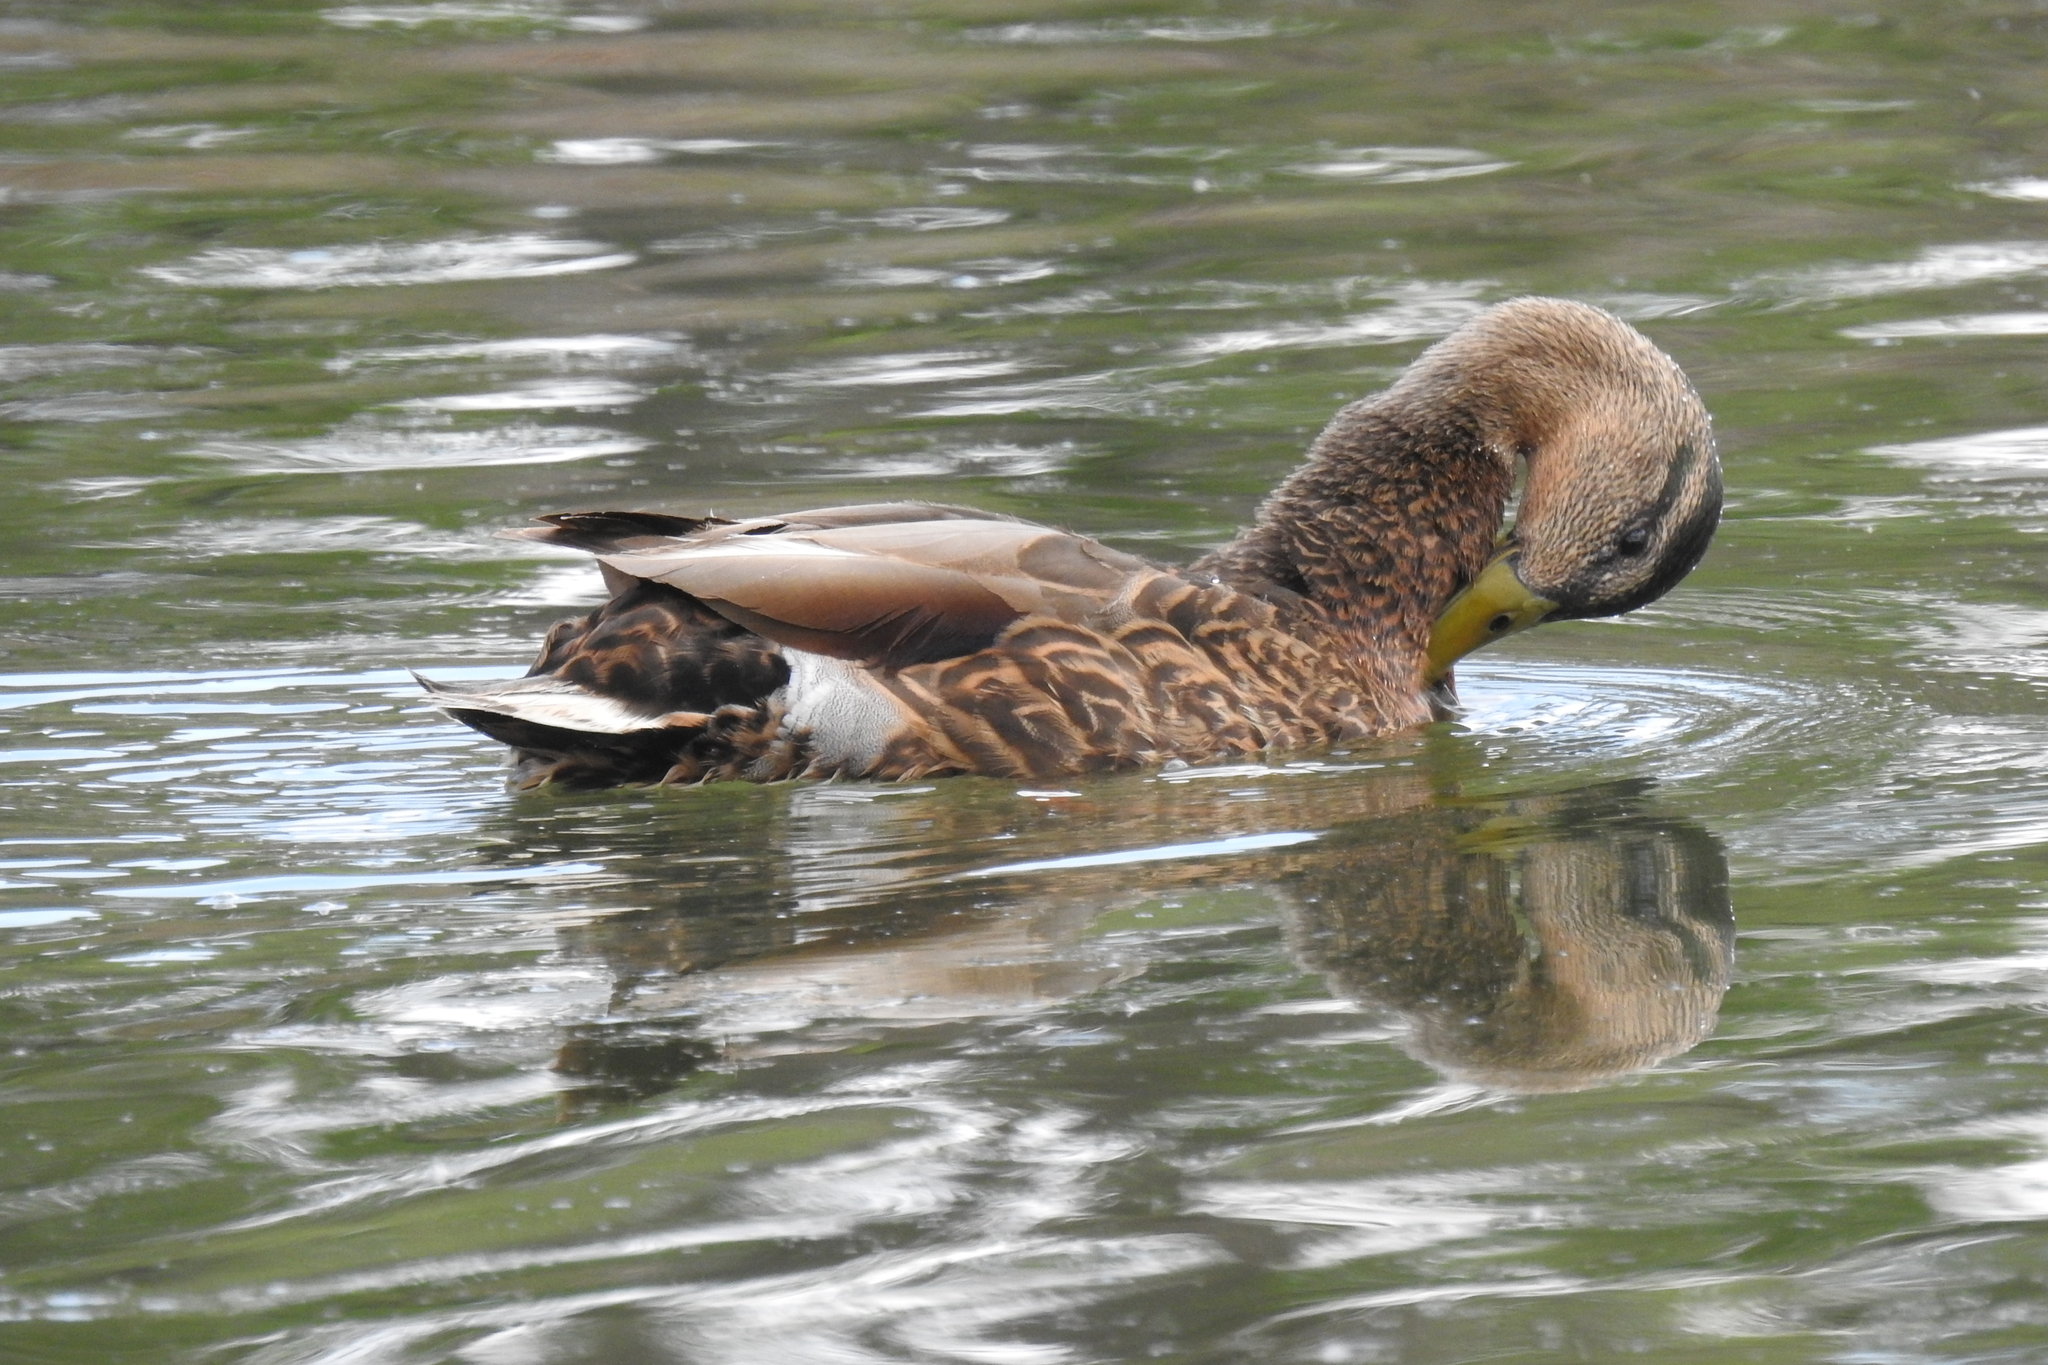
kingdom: Animalia
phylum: Chordata
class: Aves
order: Anseriformes
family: Anatidae
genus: Anas
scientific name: Anas
